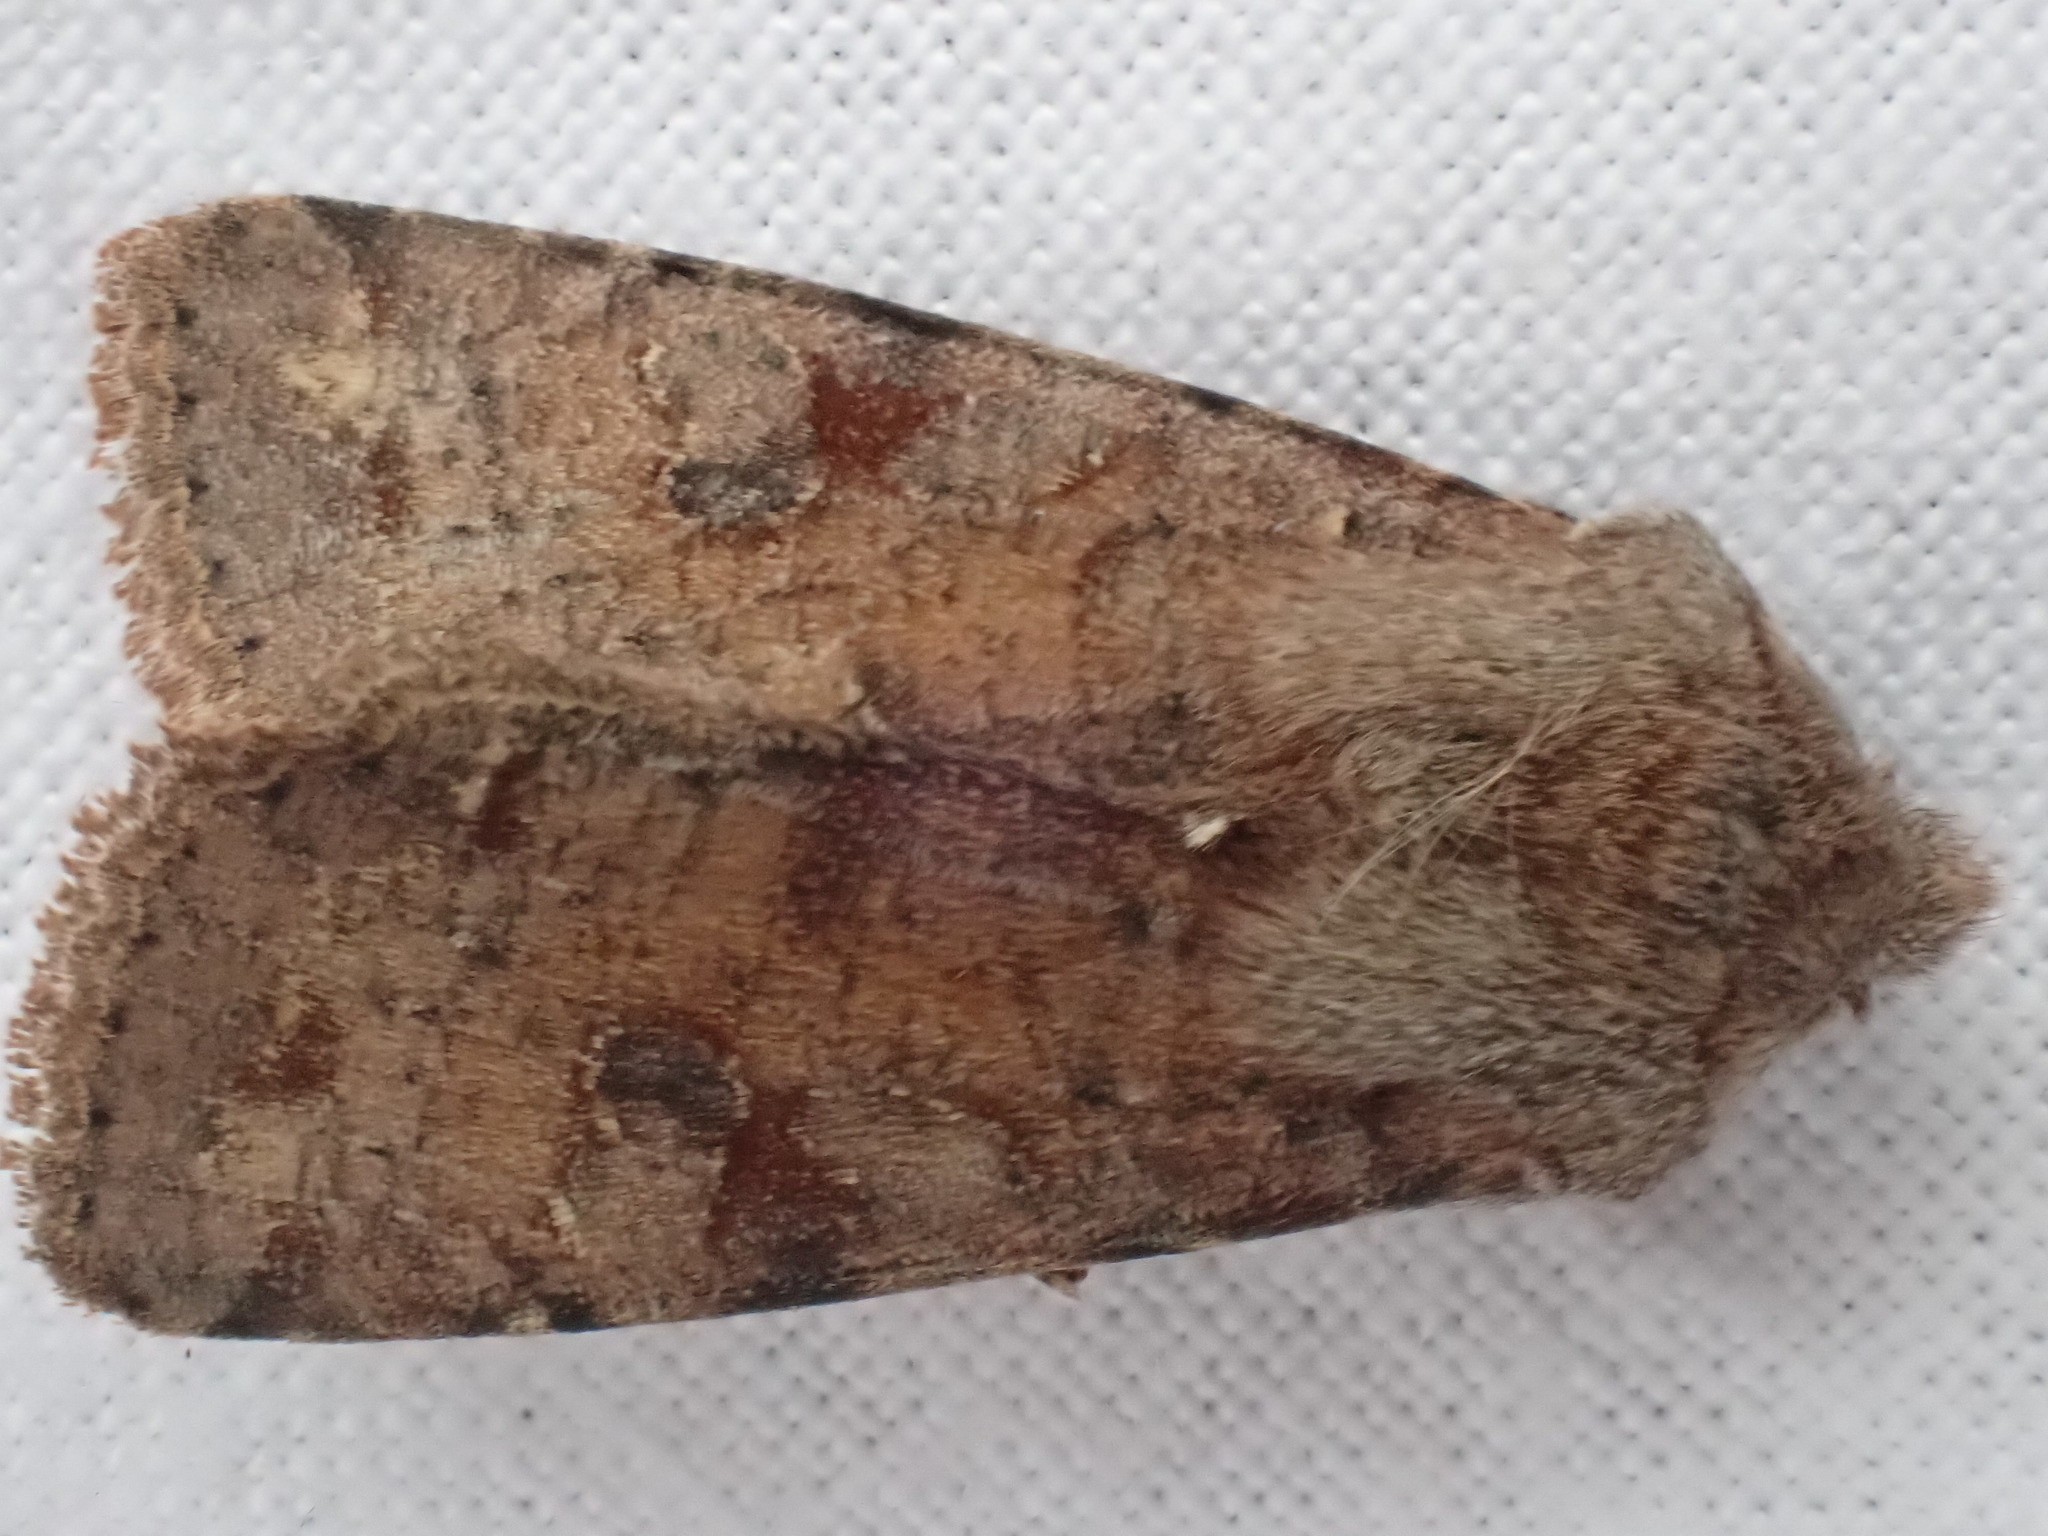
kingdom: Animalia
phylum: Arthropoda
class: Insecta
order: Lepidoptera
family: Noctuidae
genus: Orthosia
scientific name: Orthosia incerta
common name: Clouded drab
